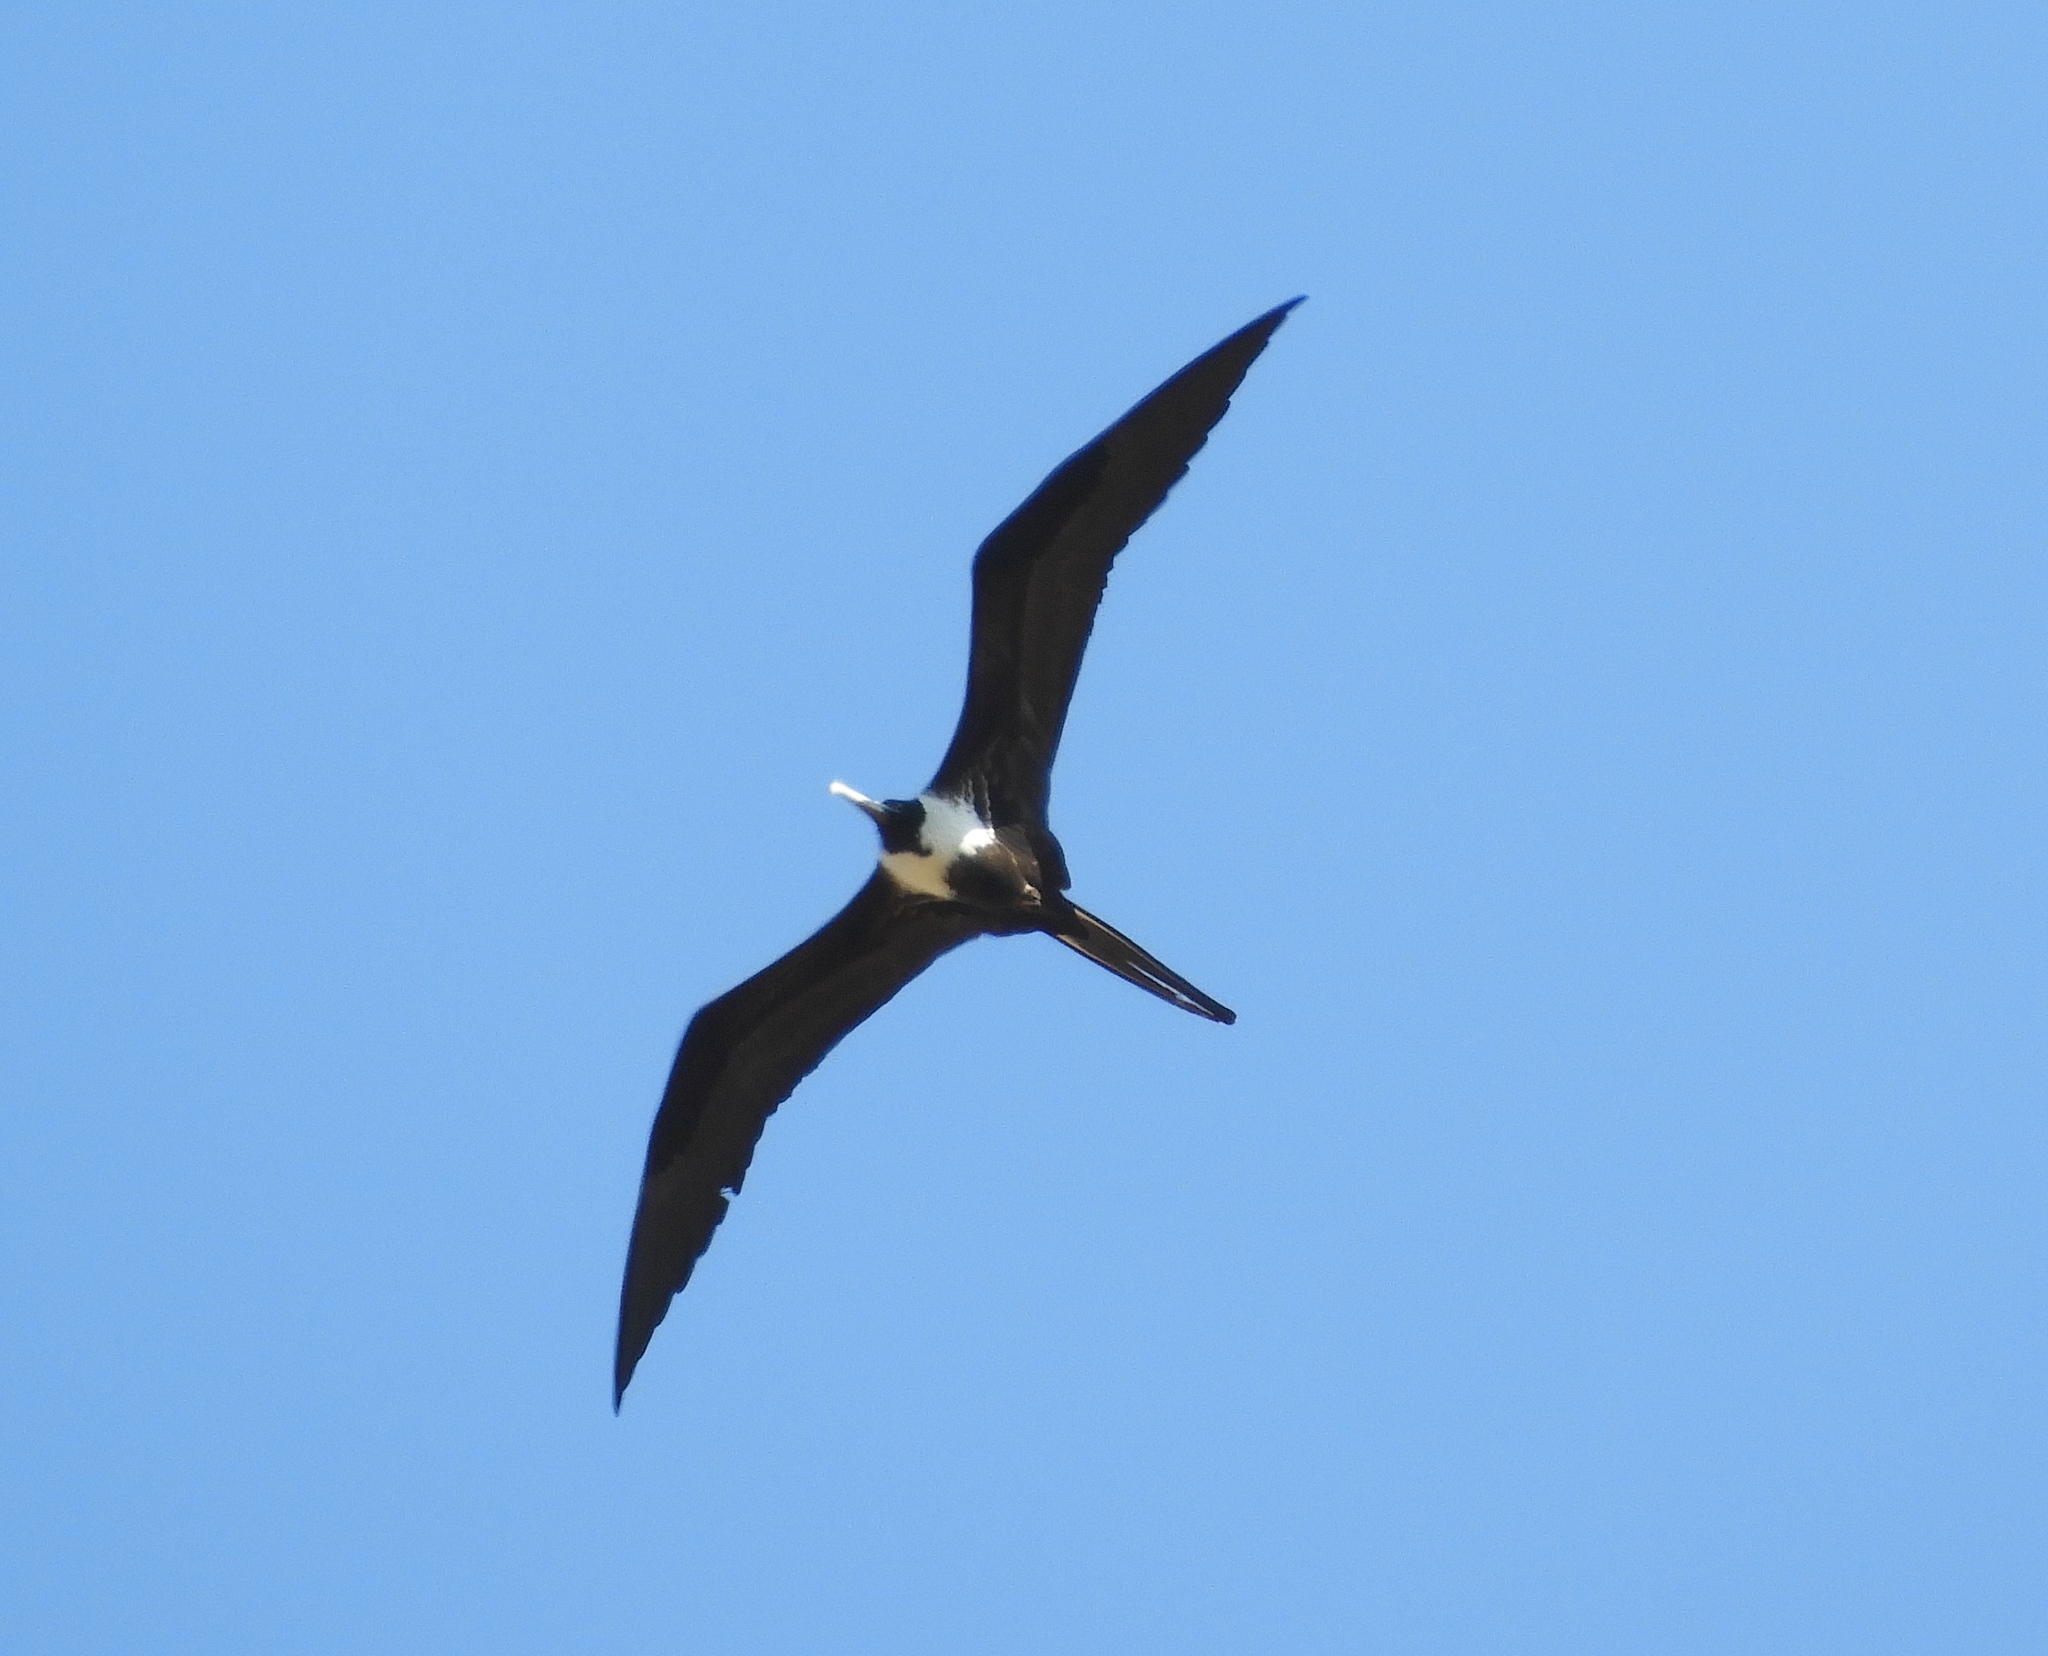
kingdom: Animalia
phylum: Chordata
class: Aves
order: Suliformes
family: Fregatidae
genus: Fregata
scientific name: Fregata magnificens
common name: Magnificent frigatebird
